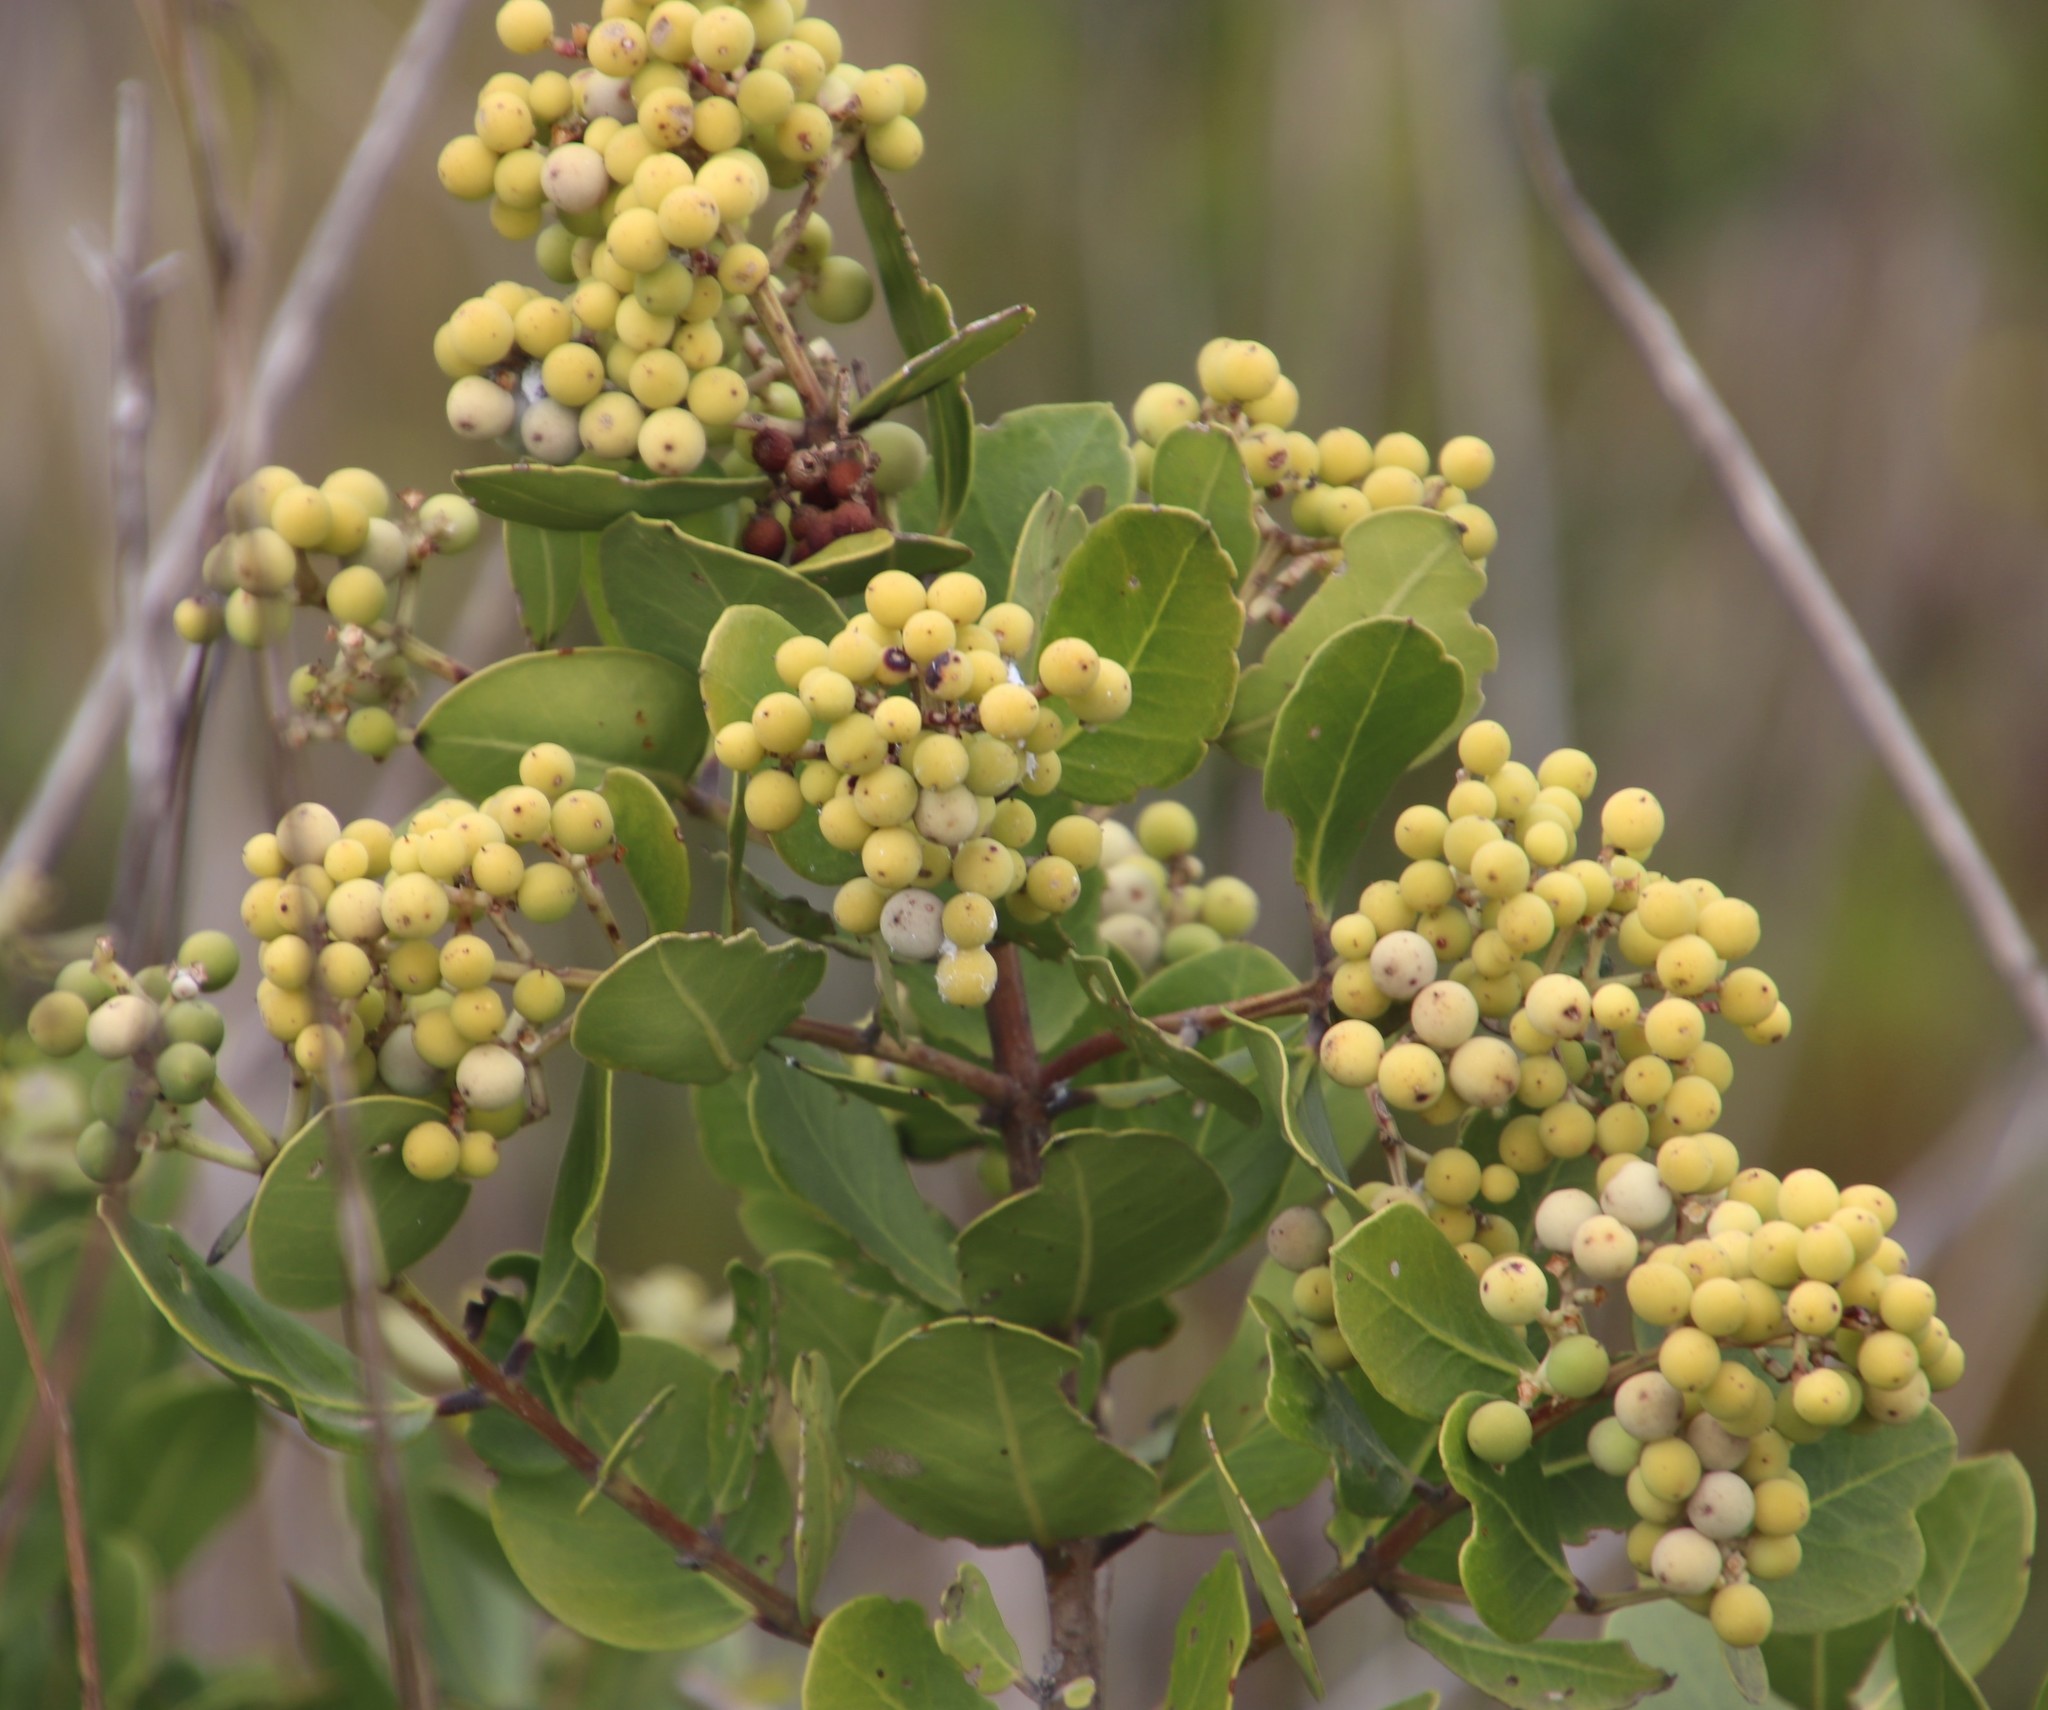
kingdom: Plantae
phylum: Tracheophyta
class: Magnoliopsida
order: Lamiales
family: Oleaceae
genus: Olea
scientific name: Olea capensis
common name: Black ironwood
